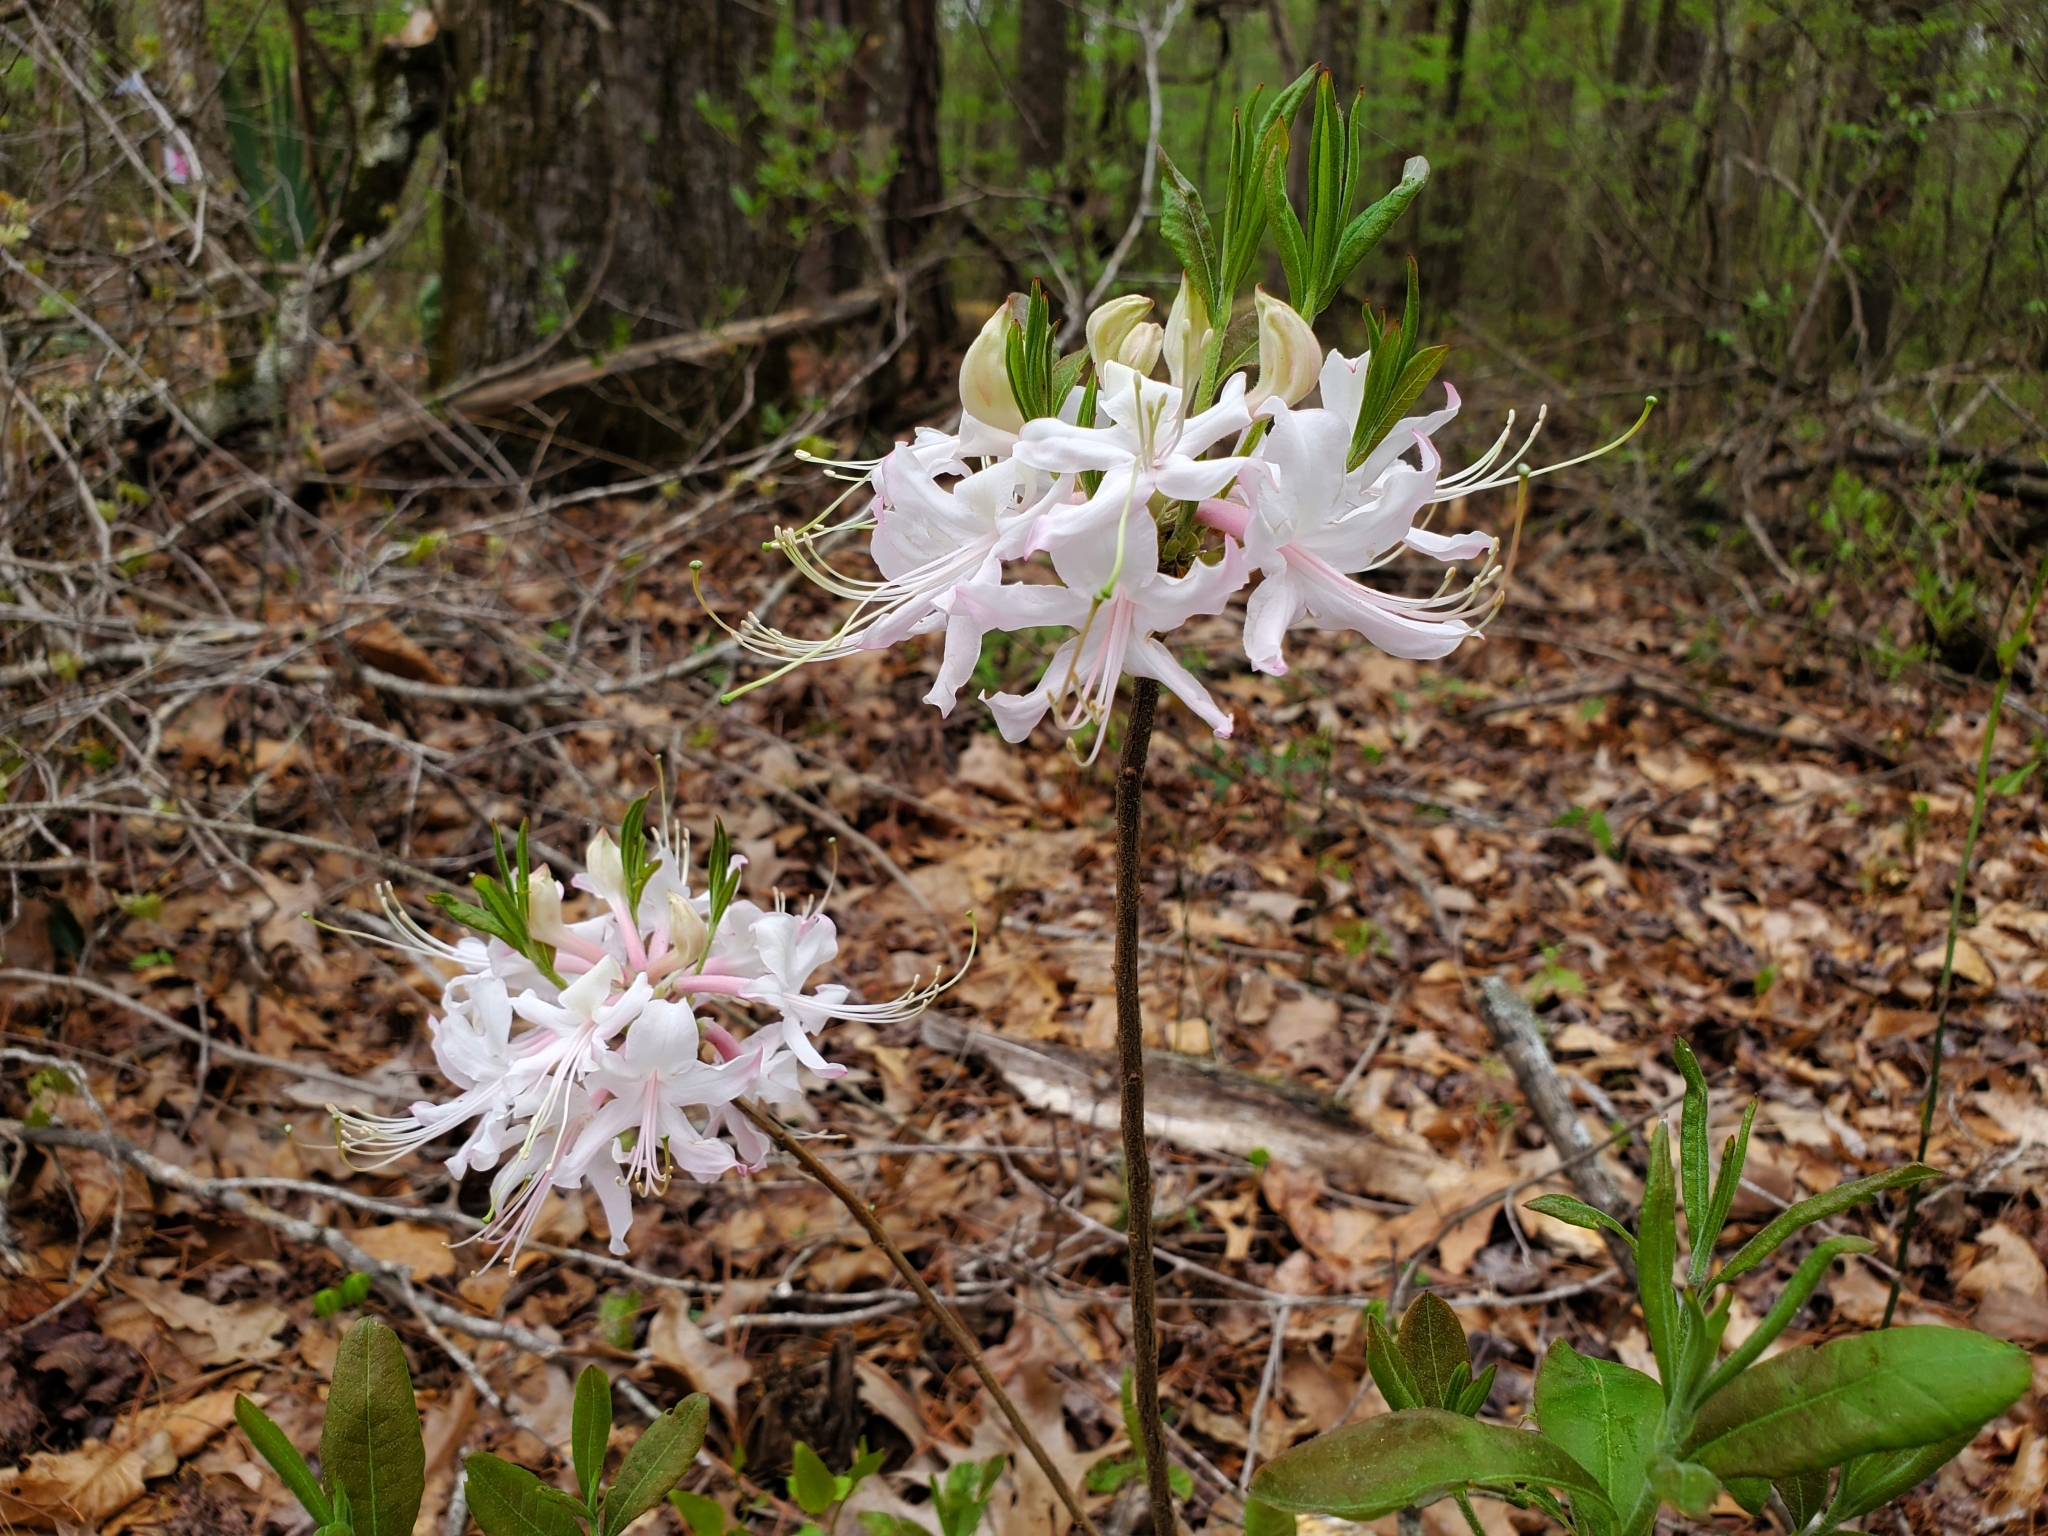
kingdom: Plantae
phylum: Tracheophyta
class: Magnoliopsida
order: Ericales
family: Ericaceae
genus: Rhododendron
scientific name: Rhododendron canescens
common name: Mountain azalea
